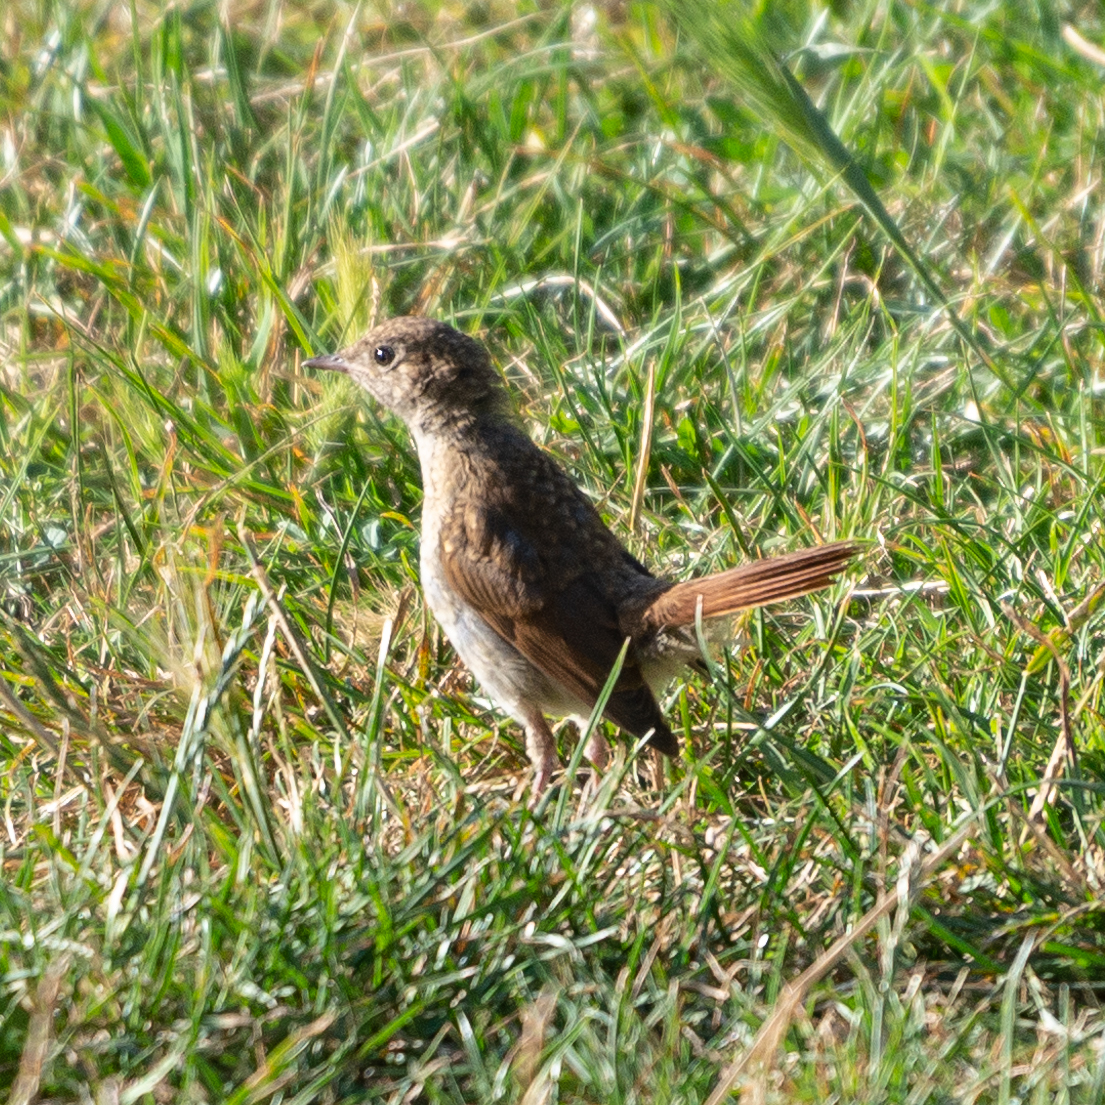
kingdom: Animalia
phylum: Chordata
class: Aves
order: Passeriformes
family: Muscicapidae
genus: Luscinia
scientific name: Luscinia megarhynchos
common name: Common nightingale
